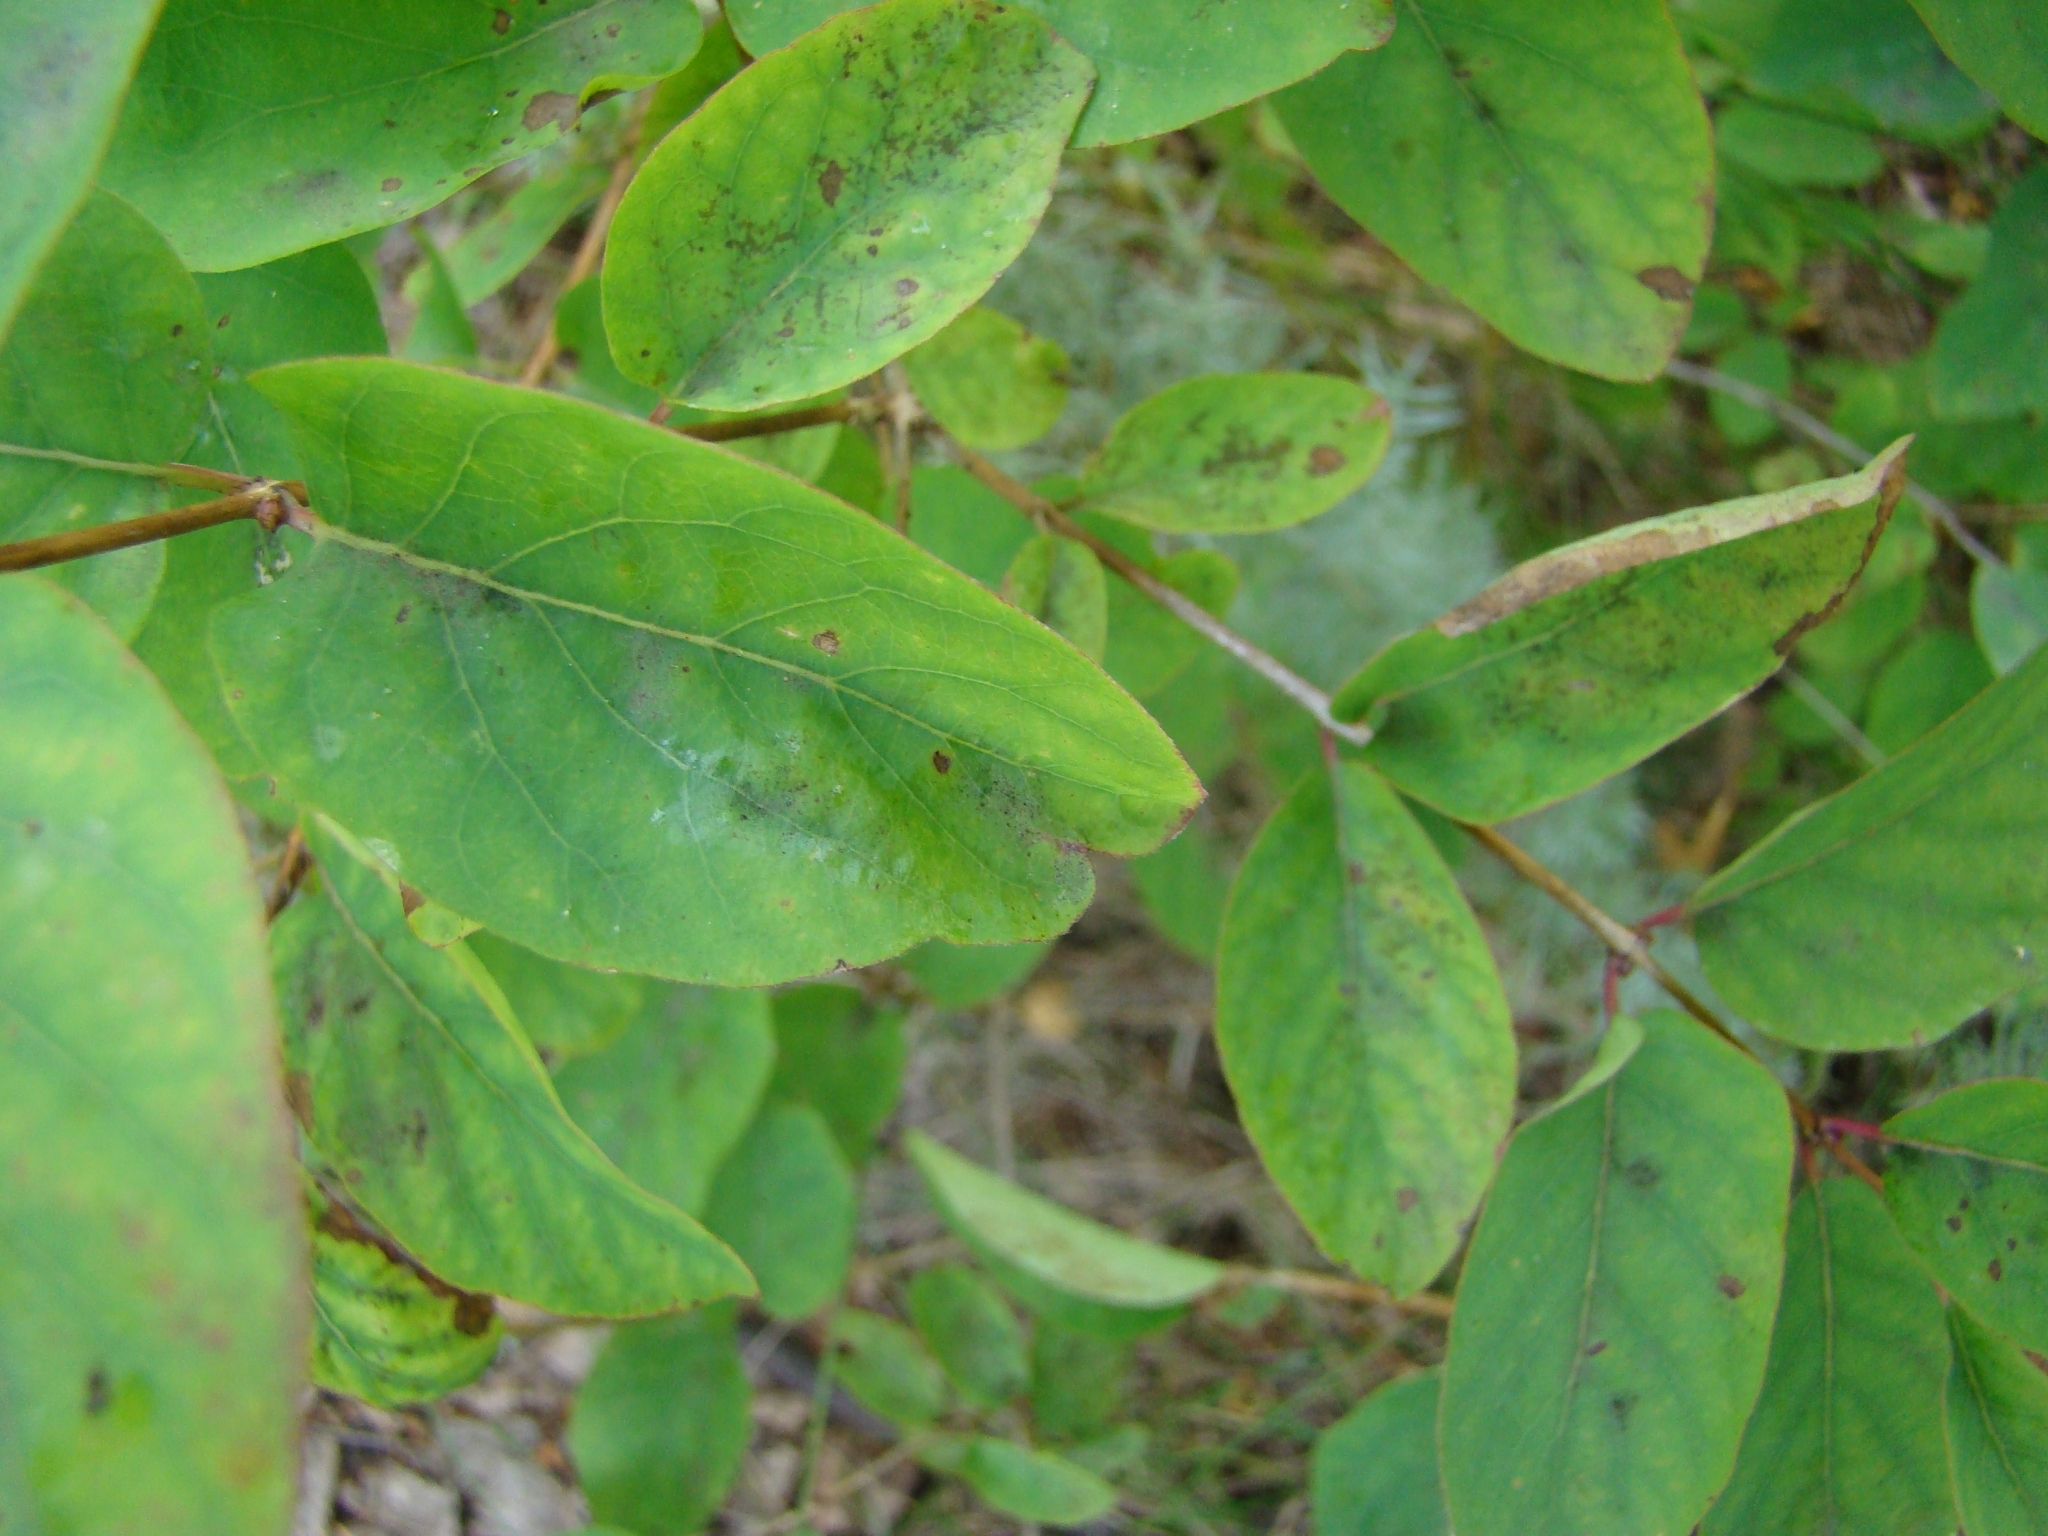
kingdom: Plantae
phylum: Tracheophyta
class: Magnoliopsida
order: Dipsacales
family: Caprifoliaceae
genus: Lonicera
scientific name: Lonicera tatarica
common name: Tatarian honeysuckle
